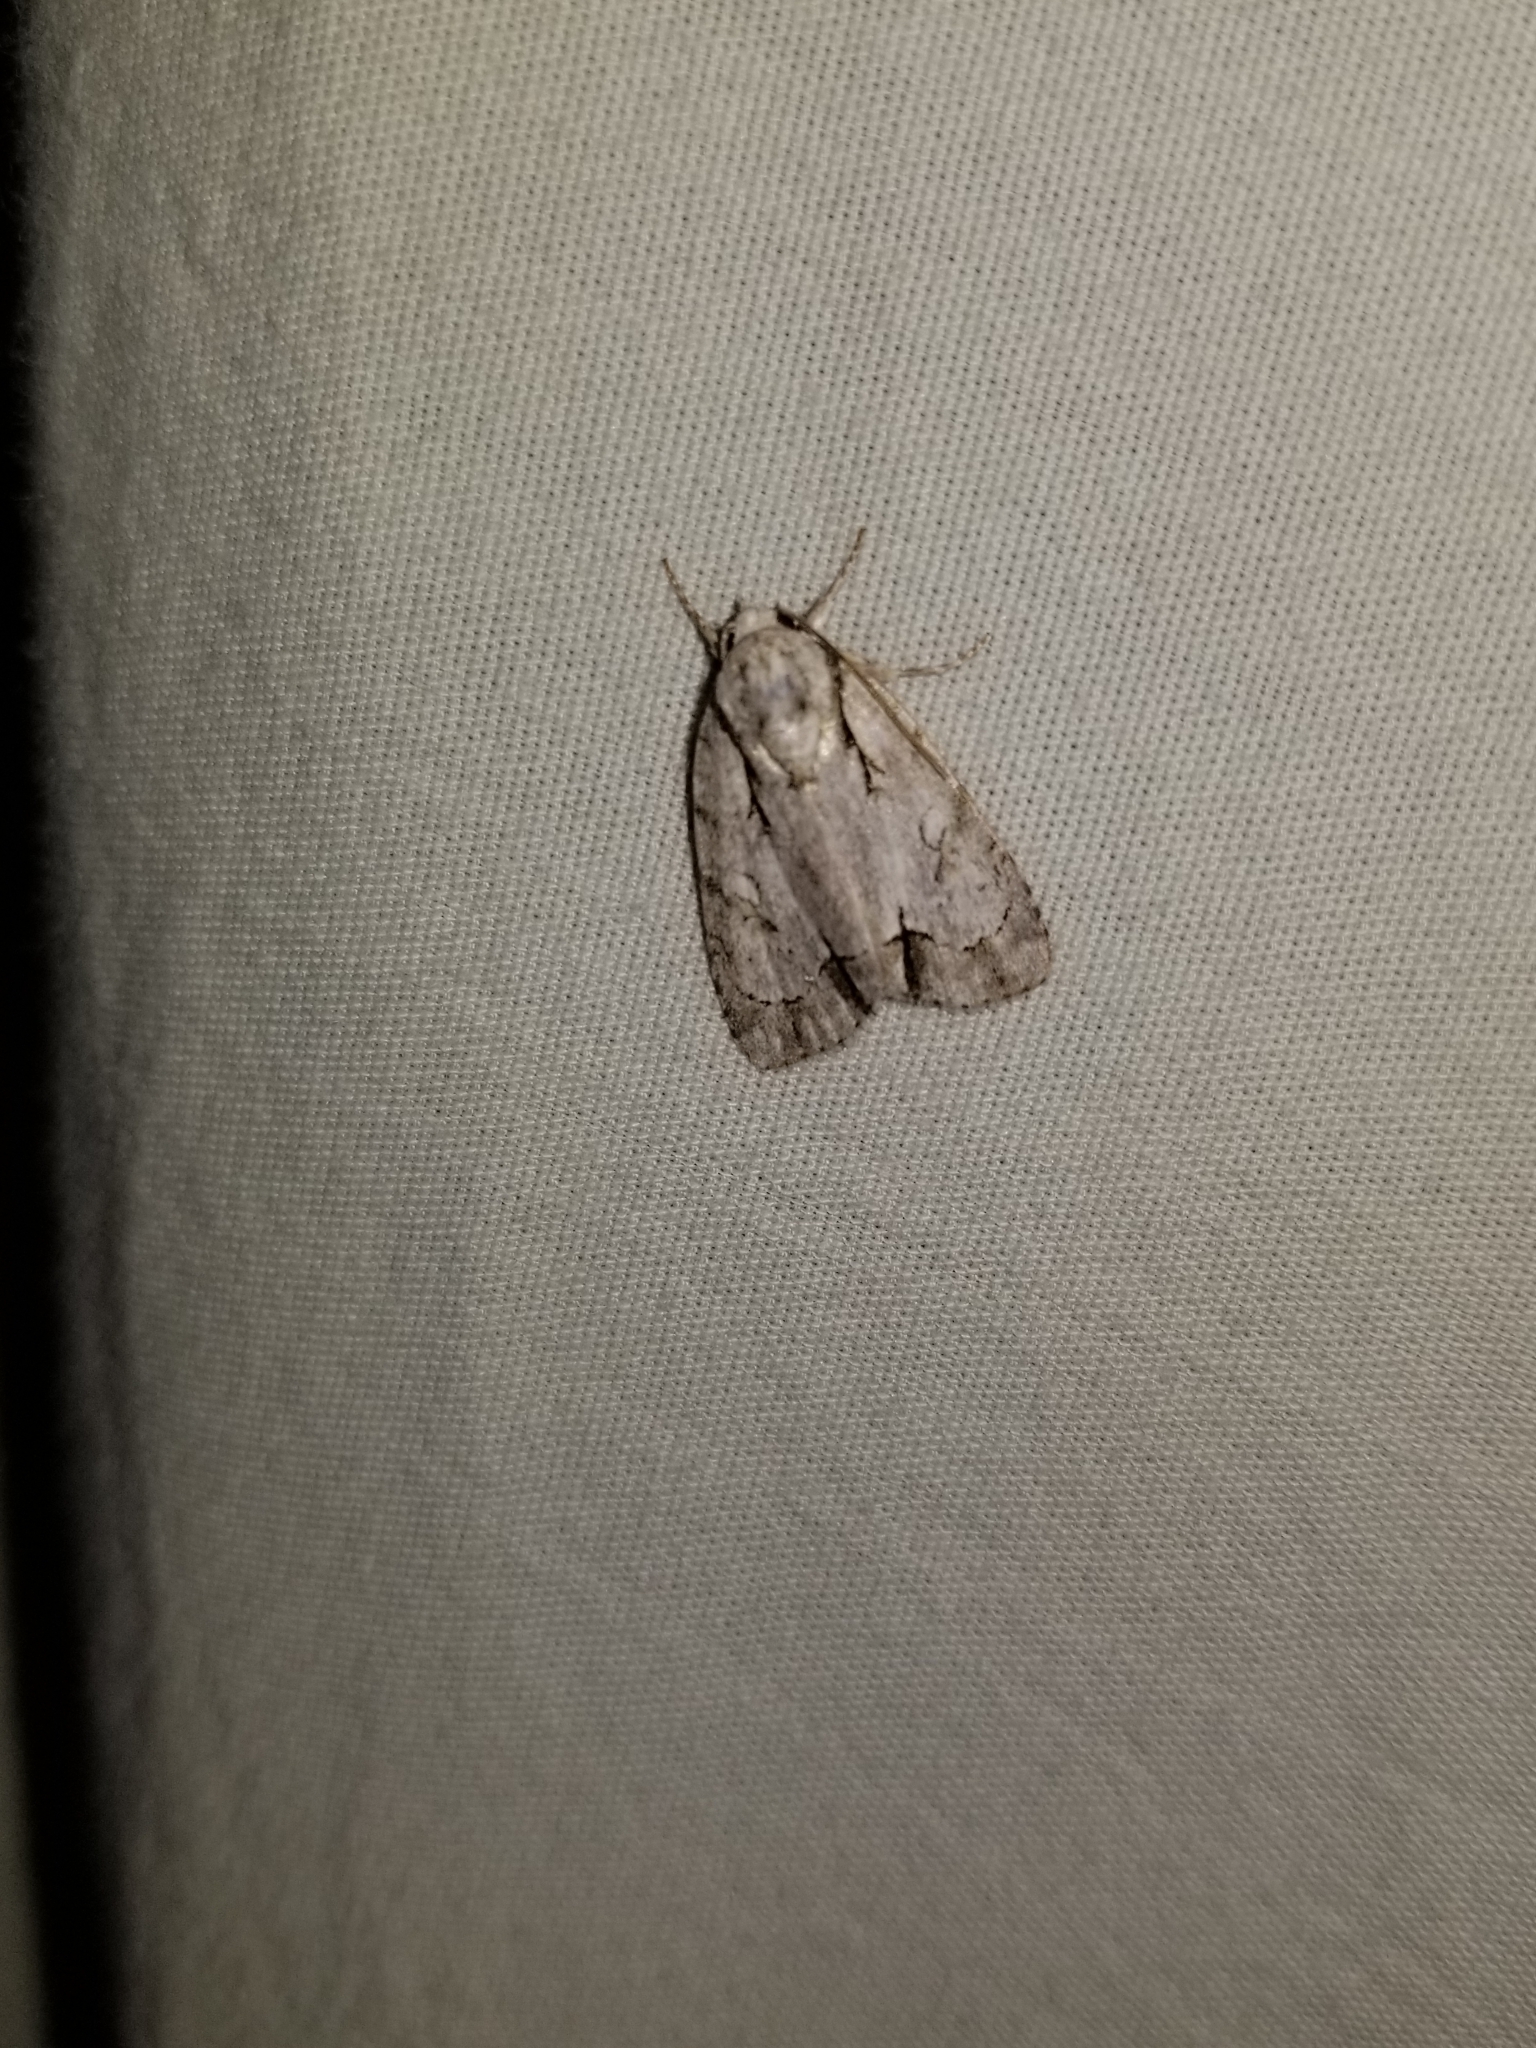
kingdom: Animalia
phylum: Arthropoda
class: Insecta
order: Lepidoptera
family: Noctuidae
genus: Acronicta
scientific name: Acronicta vinnula
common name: Delightful dagger
